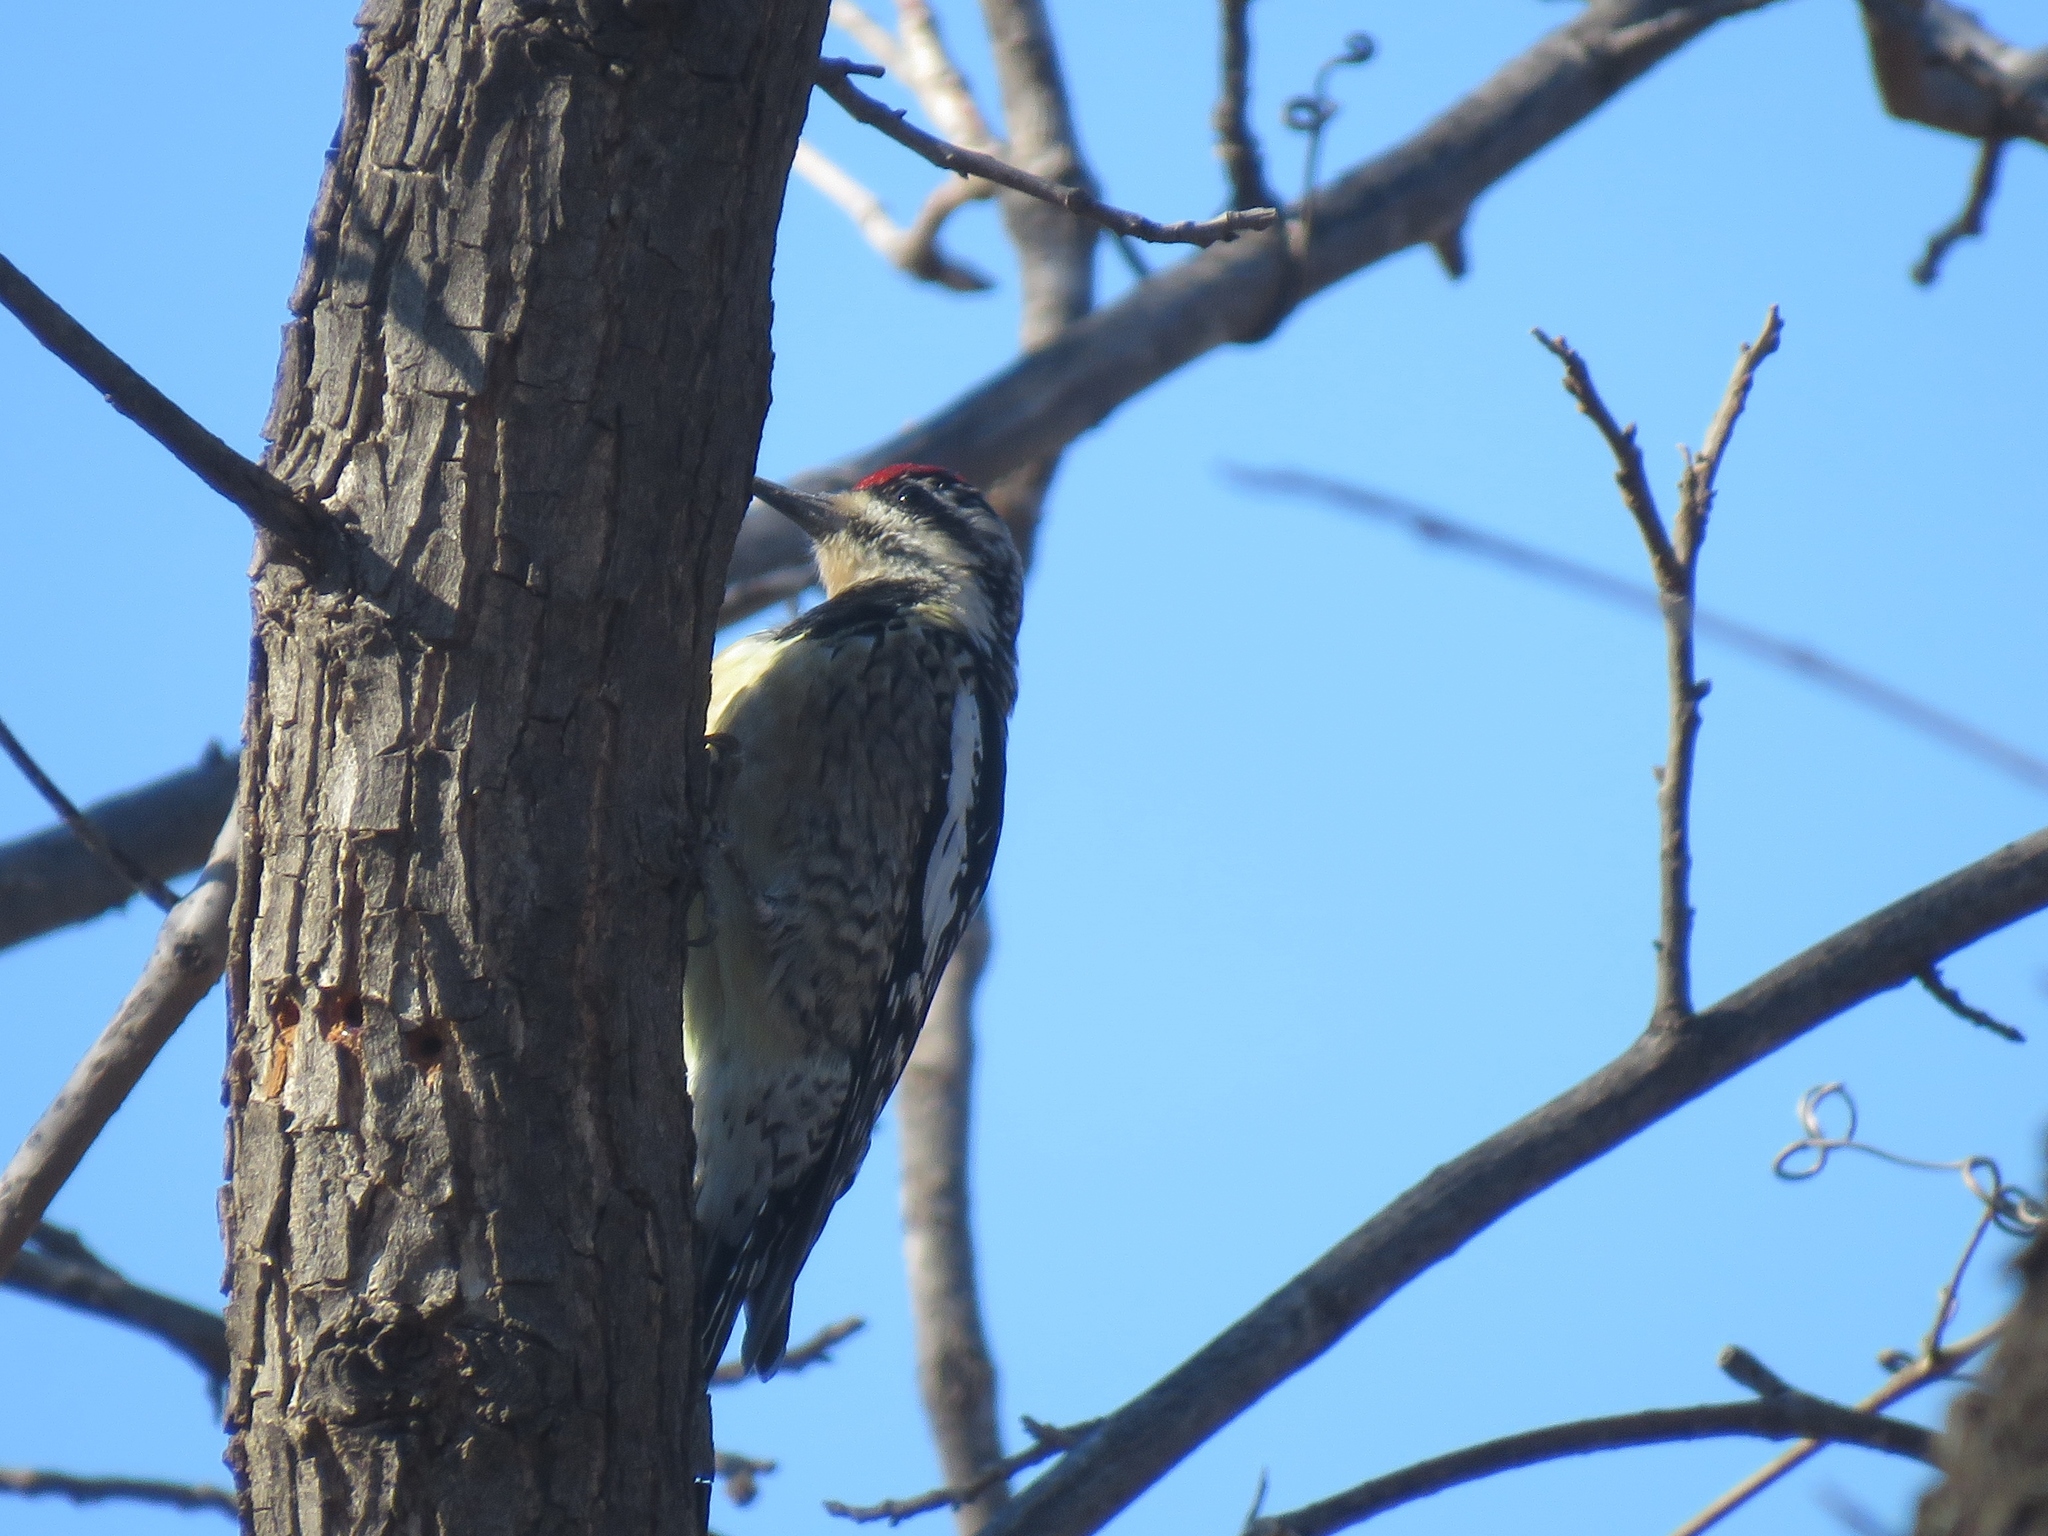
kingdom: Animalia
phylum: Chordata
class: Aves
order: Piciformes
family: Picidae
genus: Sphyrapicus
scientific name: Sphyrapicus varius
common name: Yellow-bellied sapsucker
